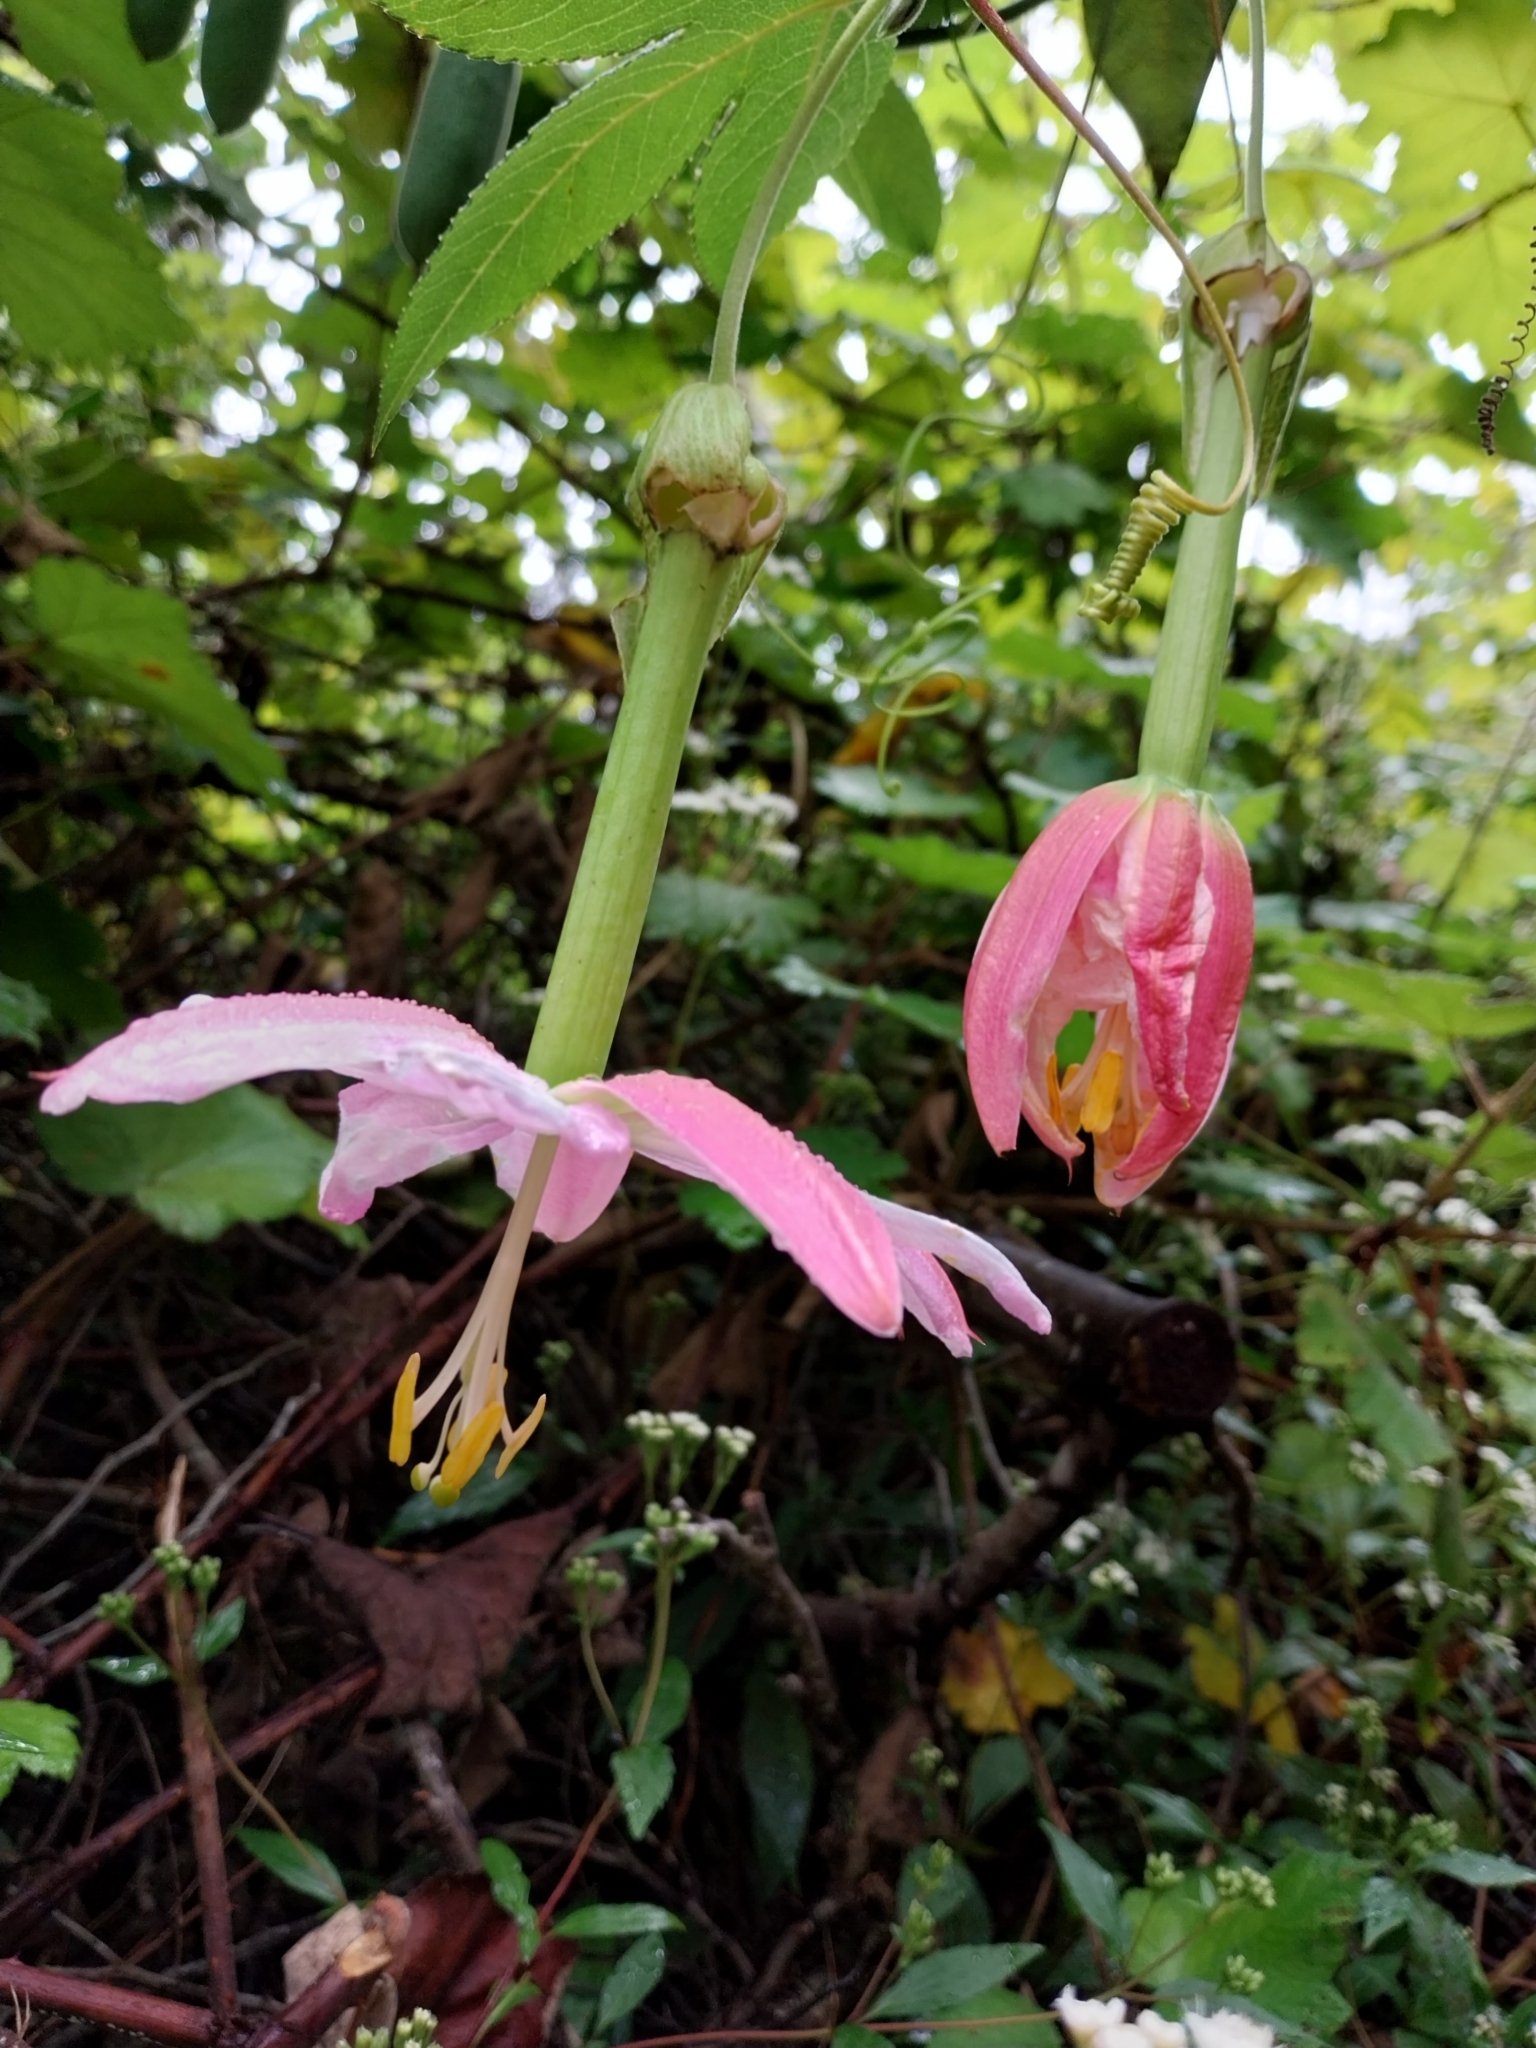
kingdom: Plantae
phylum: Tracheophyta
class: Magnoliopsida
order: Malpighiales
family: Passifloraceae
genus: Passiflora
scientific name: Passiflora tarminiana
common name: Banana poka
